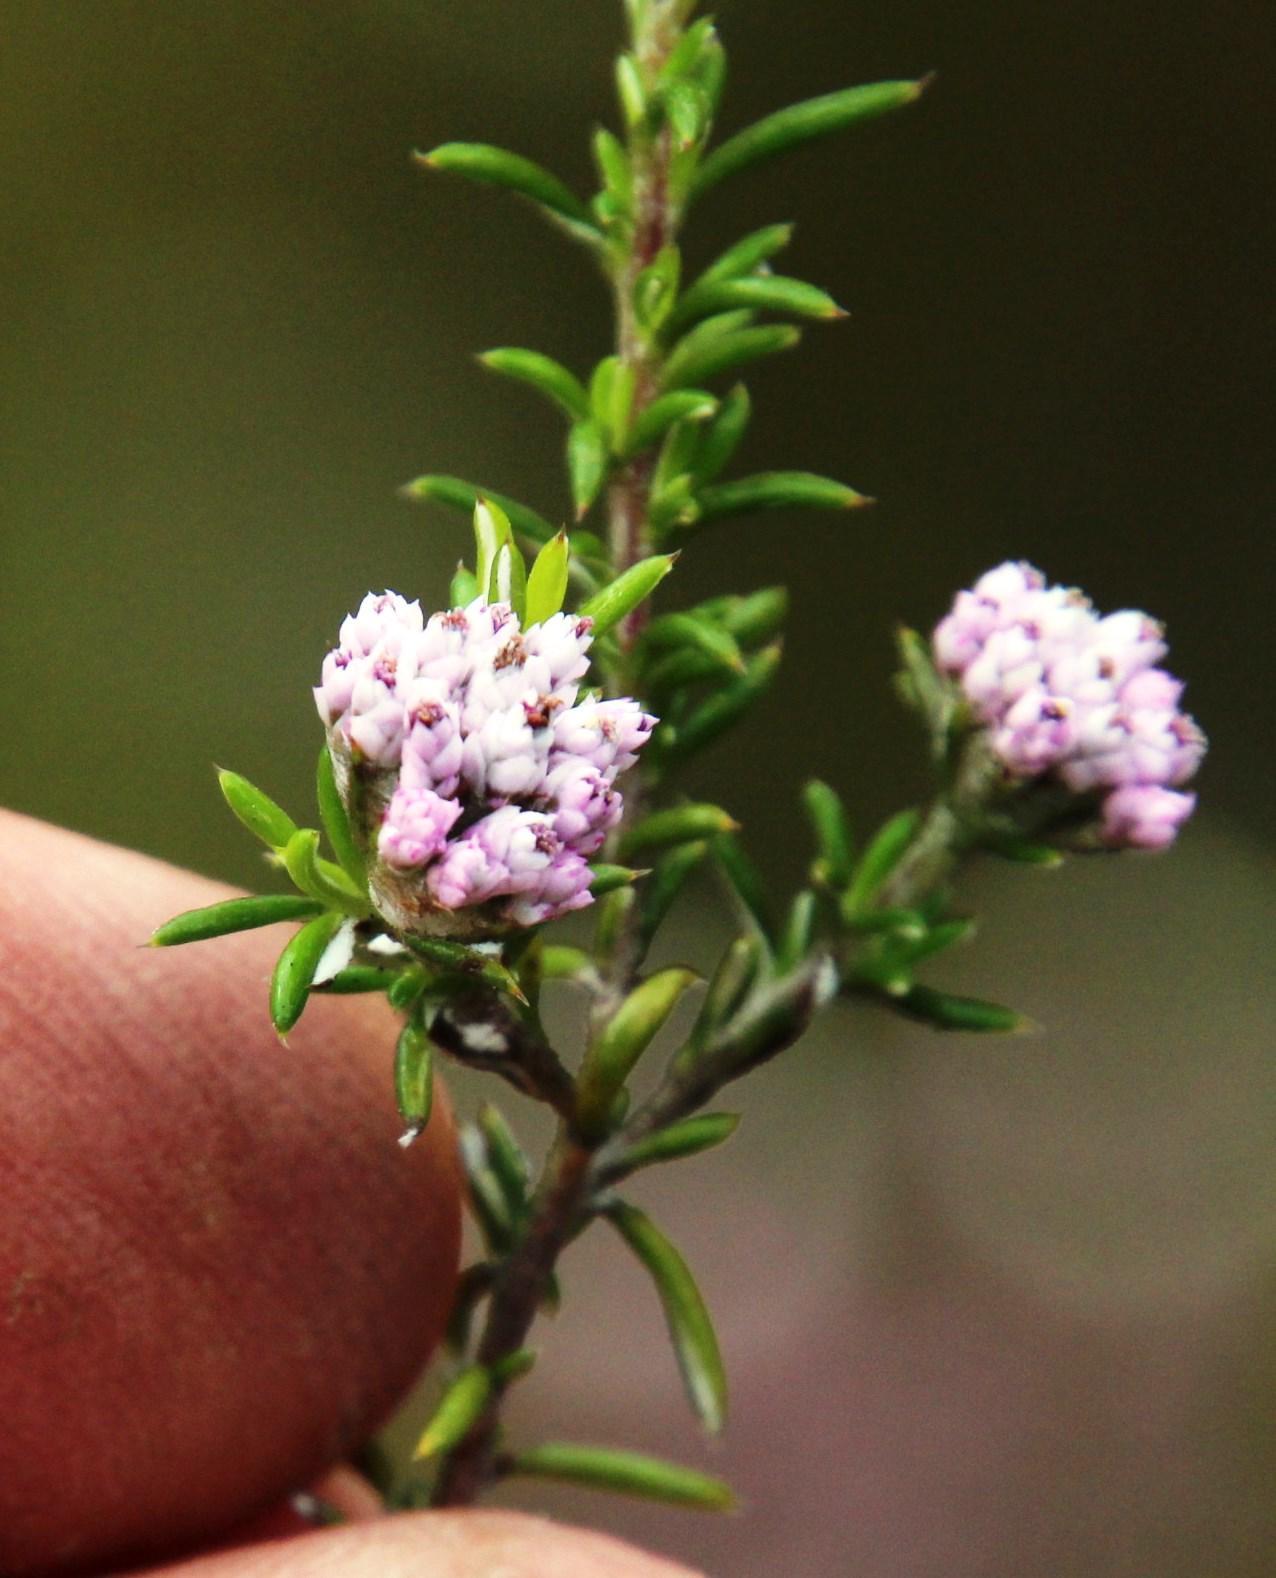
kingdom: Plantae
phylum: Tracheophyta
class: Magnoliopsida
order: Asterales
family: Asteraceae
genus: Metalasia
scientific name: Metalasia erubescens
